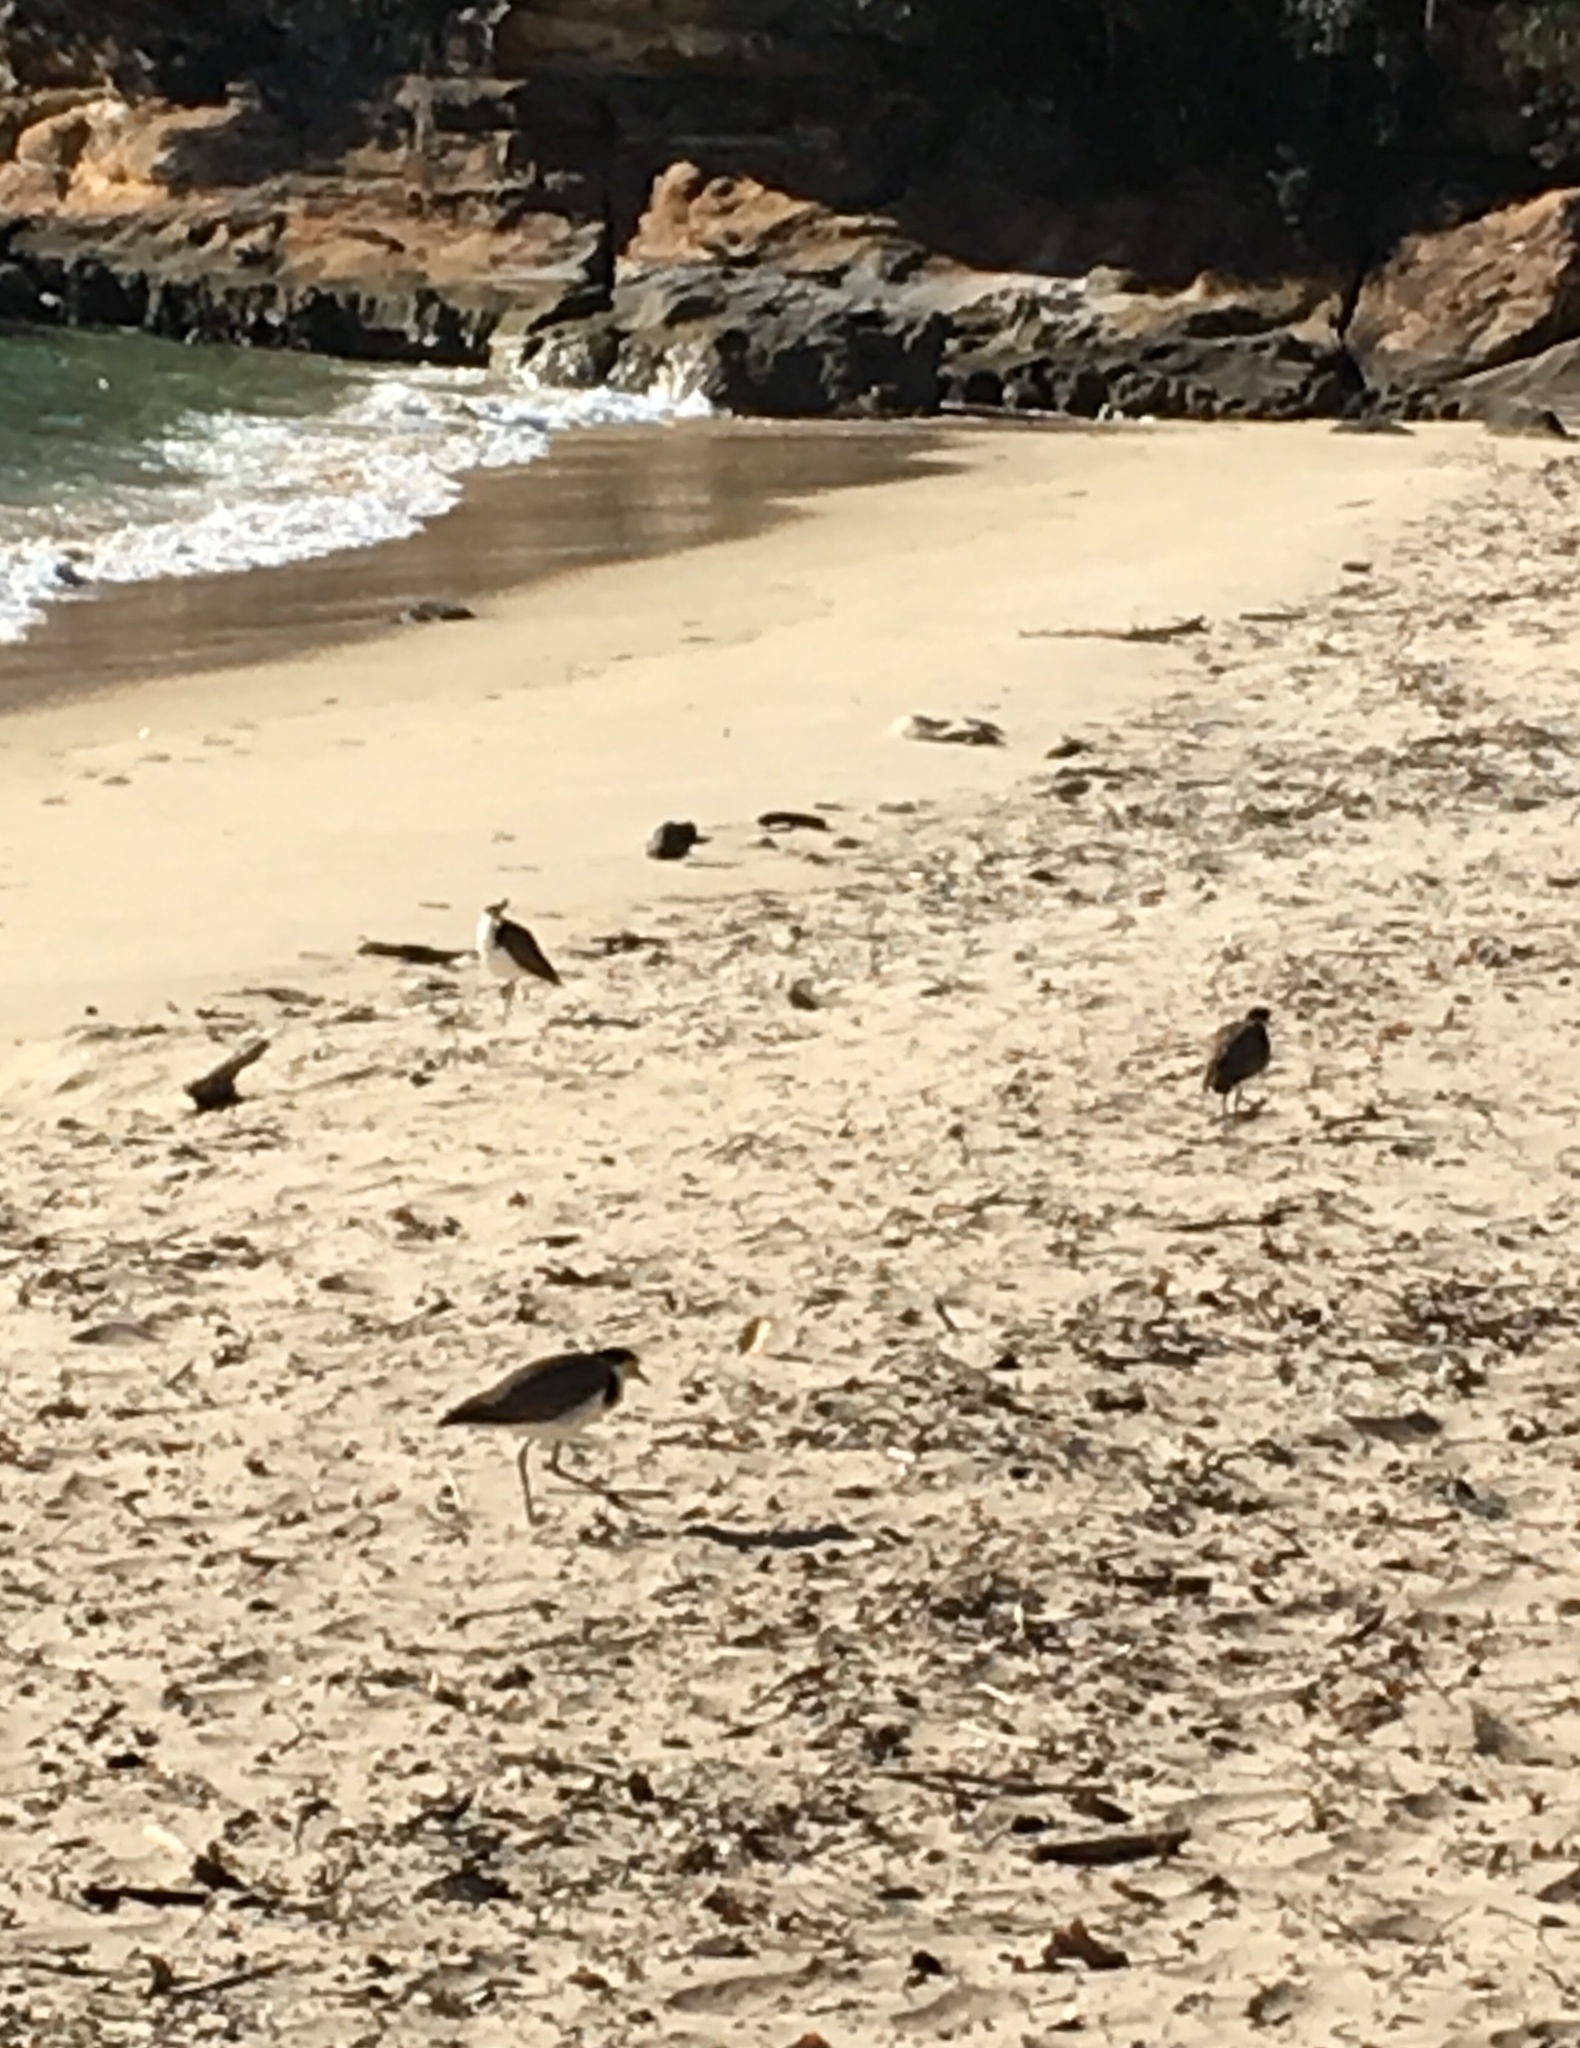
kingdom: Animalia
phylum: Chordata
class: Aves
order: Charadriiformes
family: Charadriidae
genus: Vanellus
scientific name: Vanellus miles
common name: Masked lapwing
